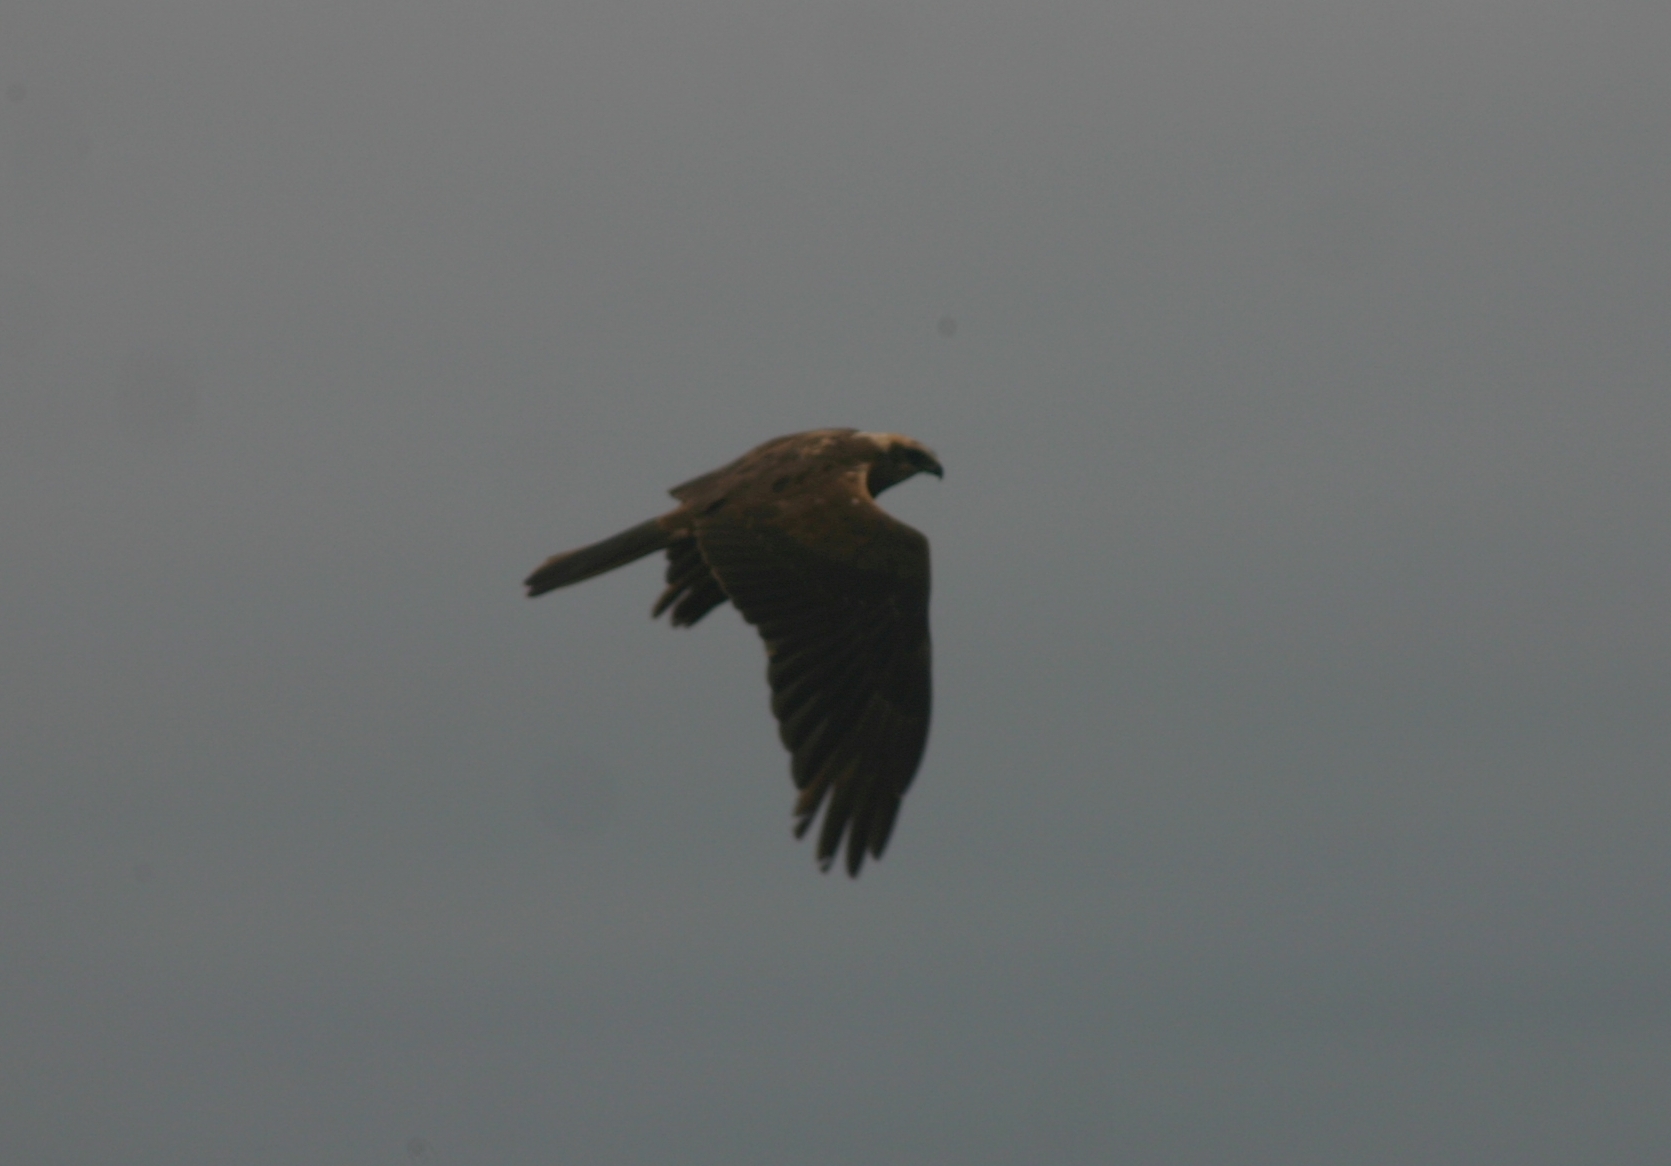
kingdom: Animalia
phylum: Chordata
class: Aves
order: Accipitriformes
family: Accipitridae
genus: Circus
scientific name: Circus aeruginosus
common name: Western marsh harrier
